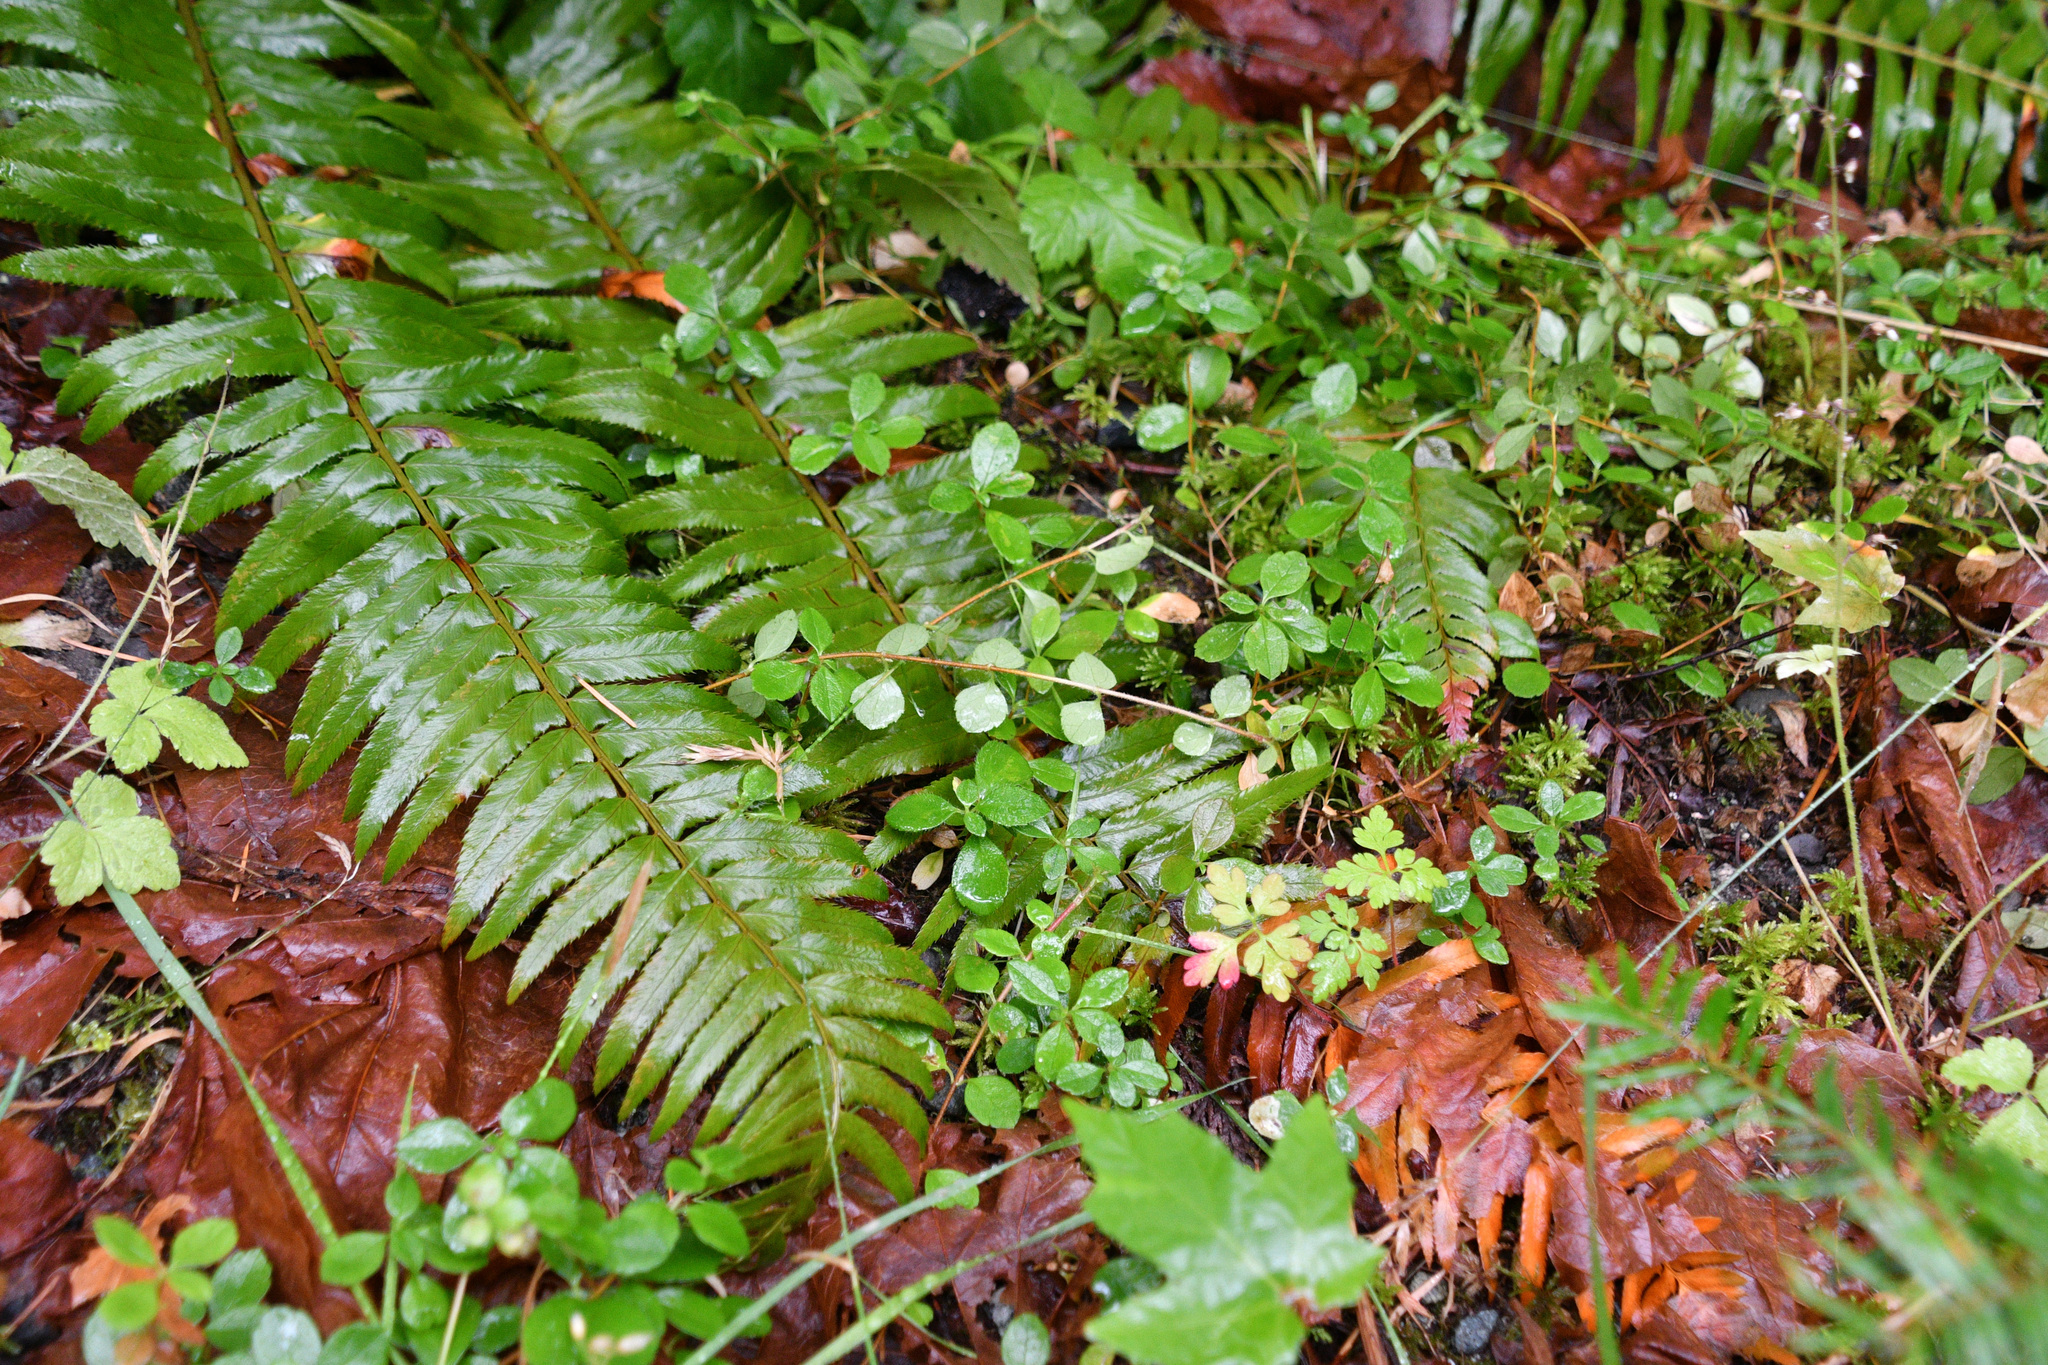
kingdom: Plantae
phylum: Tracheophyta
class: Magnoliopsida
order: Dipsacales
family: Caprifoliaceae
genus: Linnaea
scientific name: Linnaea borealis
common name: Twinflower
